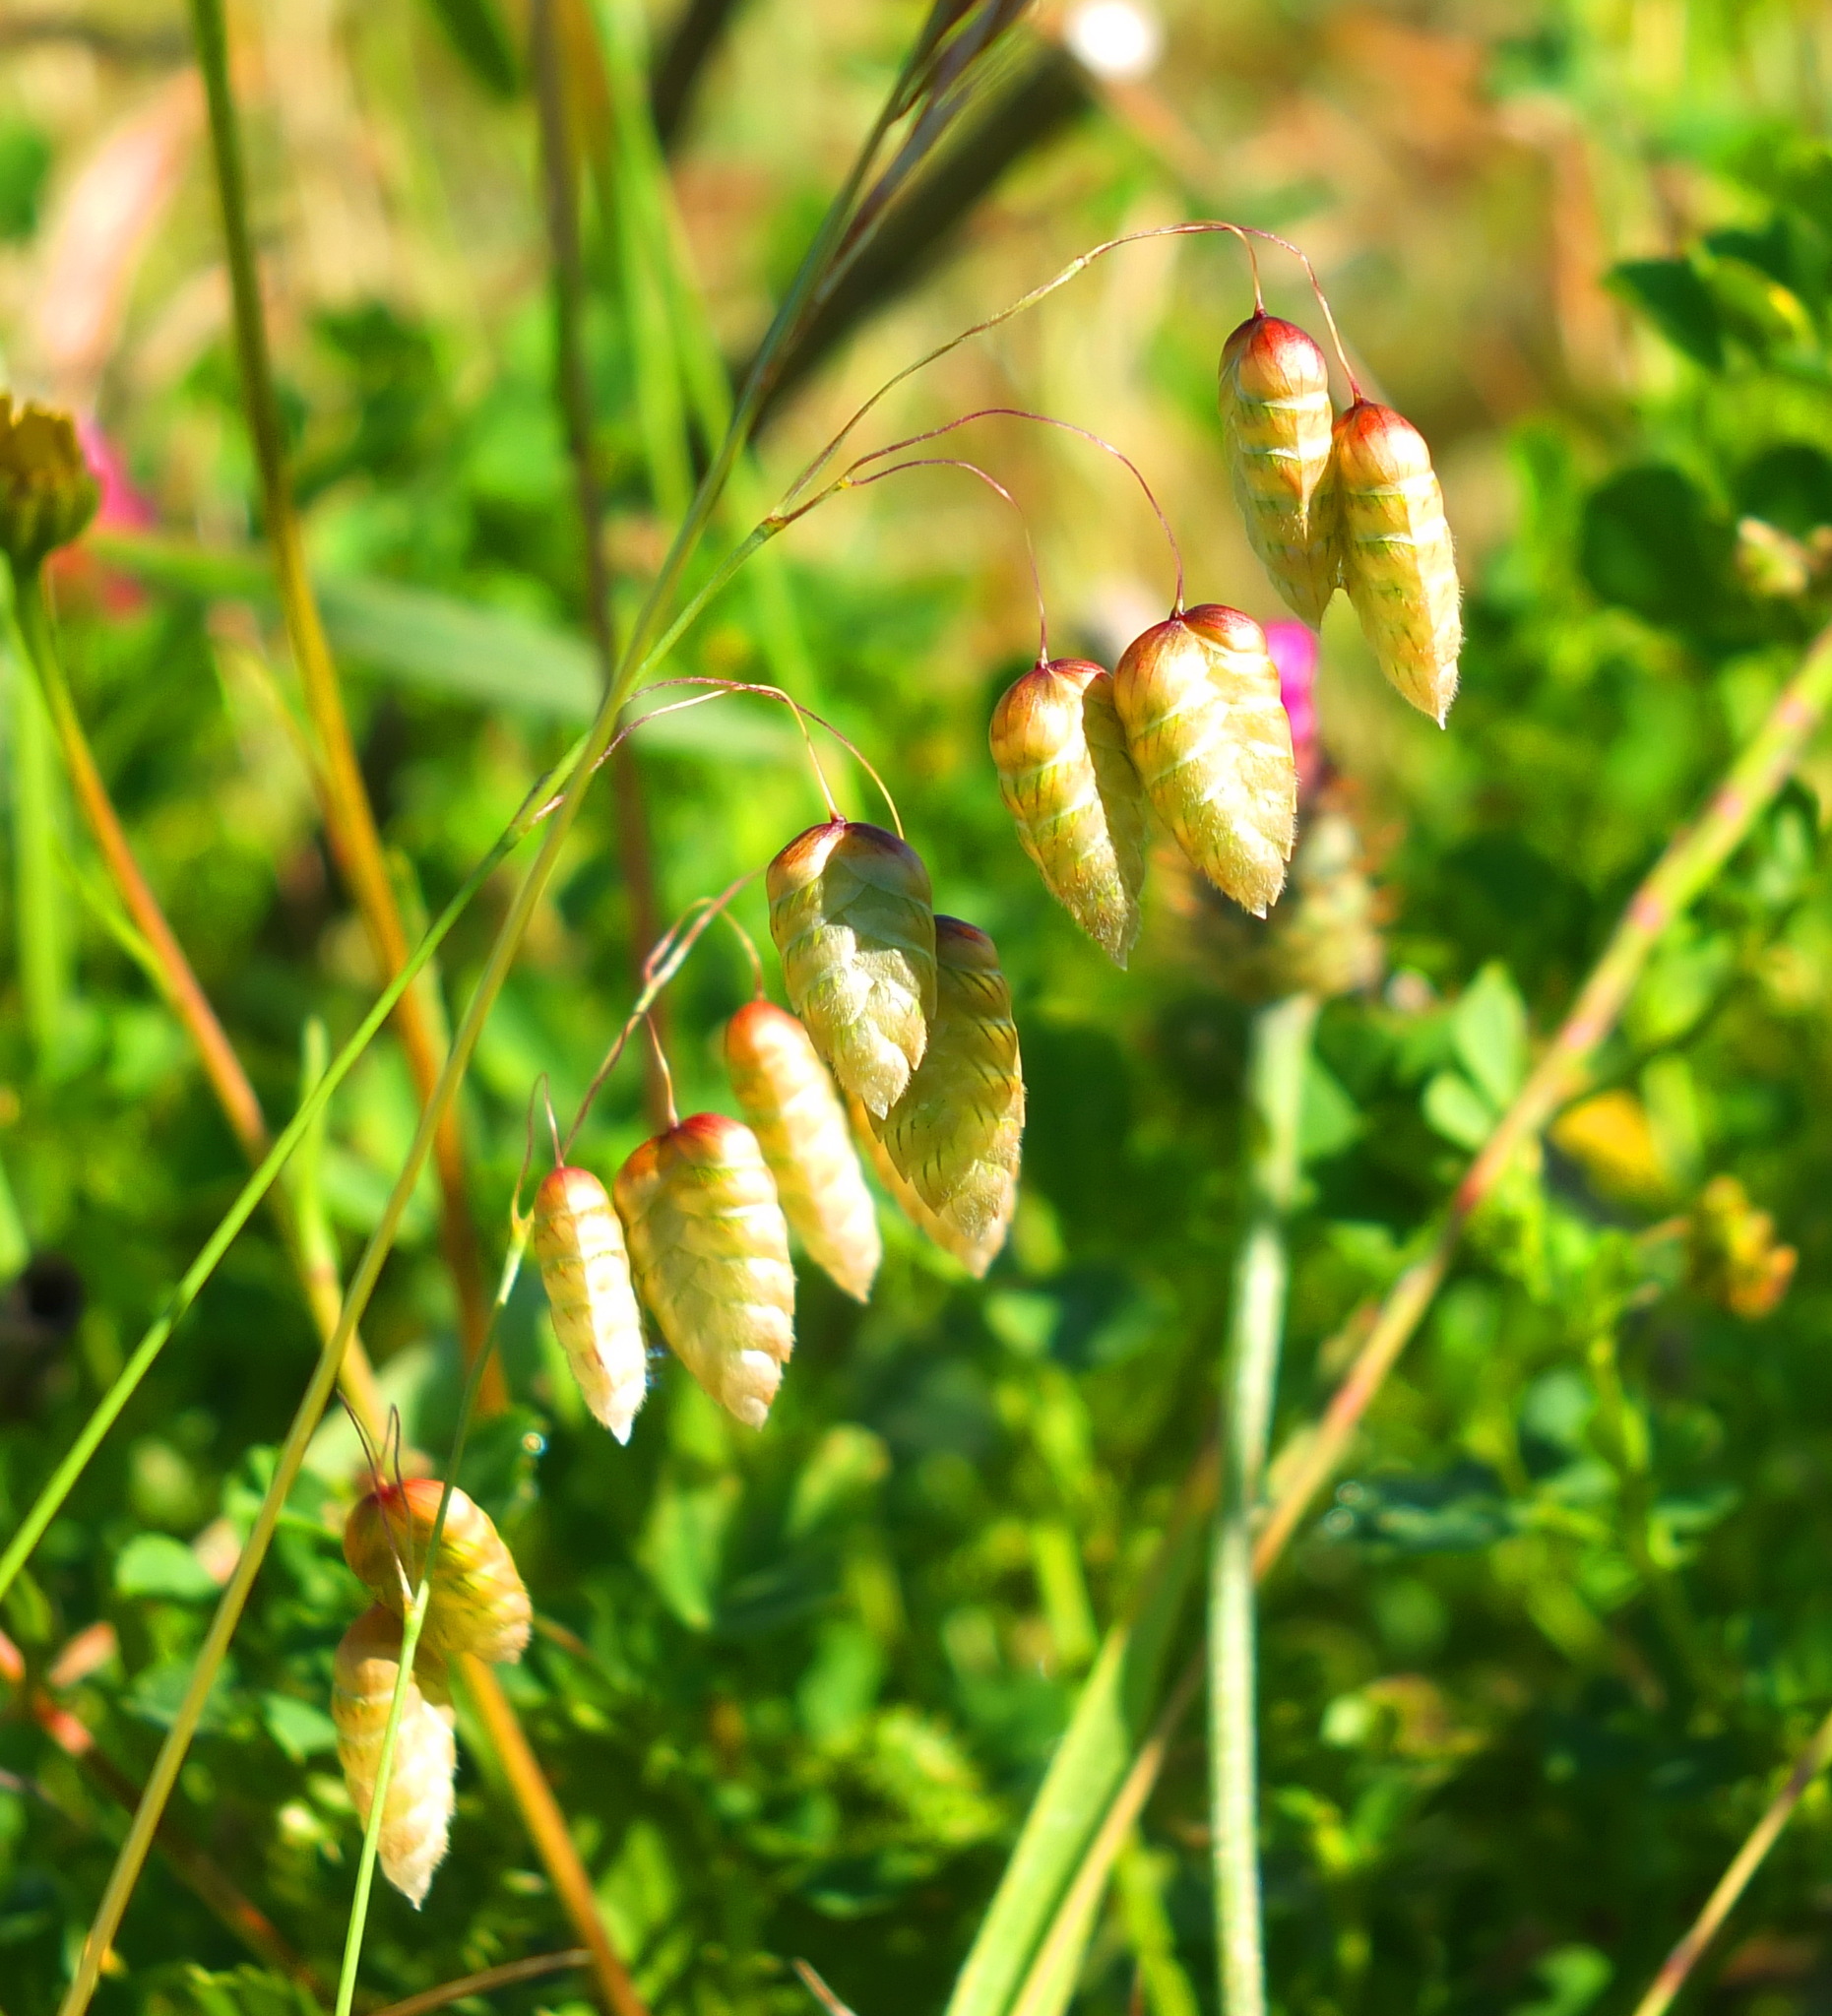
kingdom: Plantae
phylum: Tracheophyta
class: Liliopsida
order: Poales
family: Poaceae
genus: Briza
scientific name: Briza maxima
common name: Big quakinggrass
